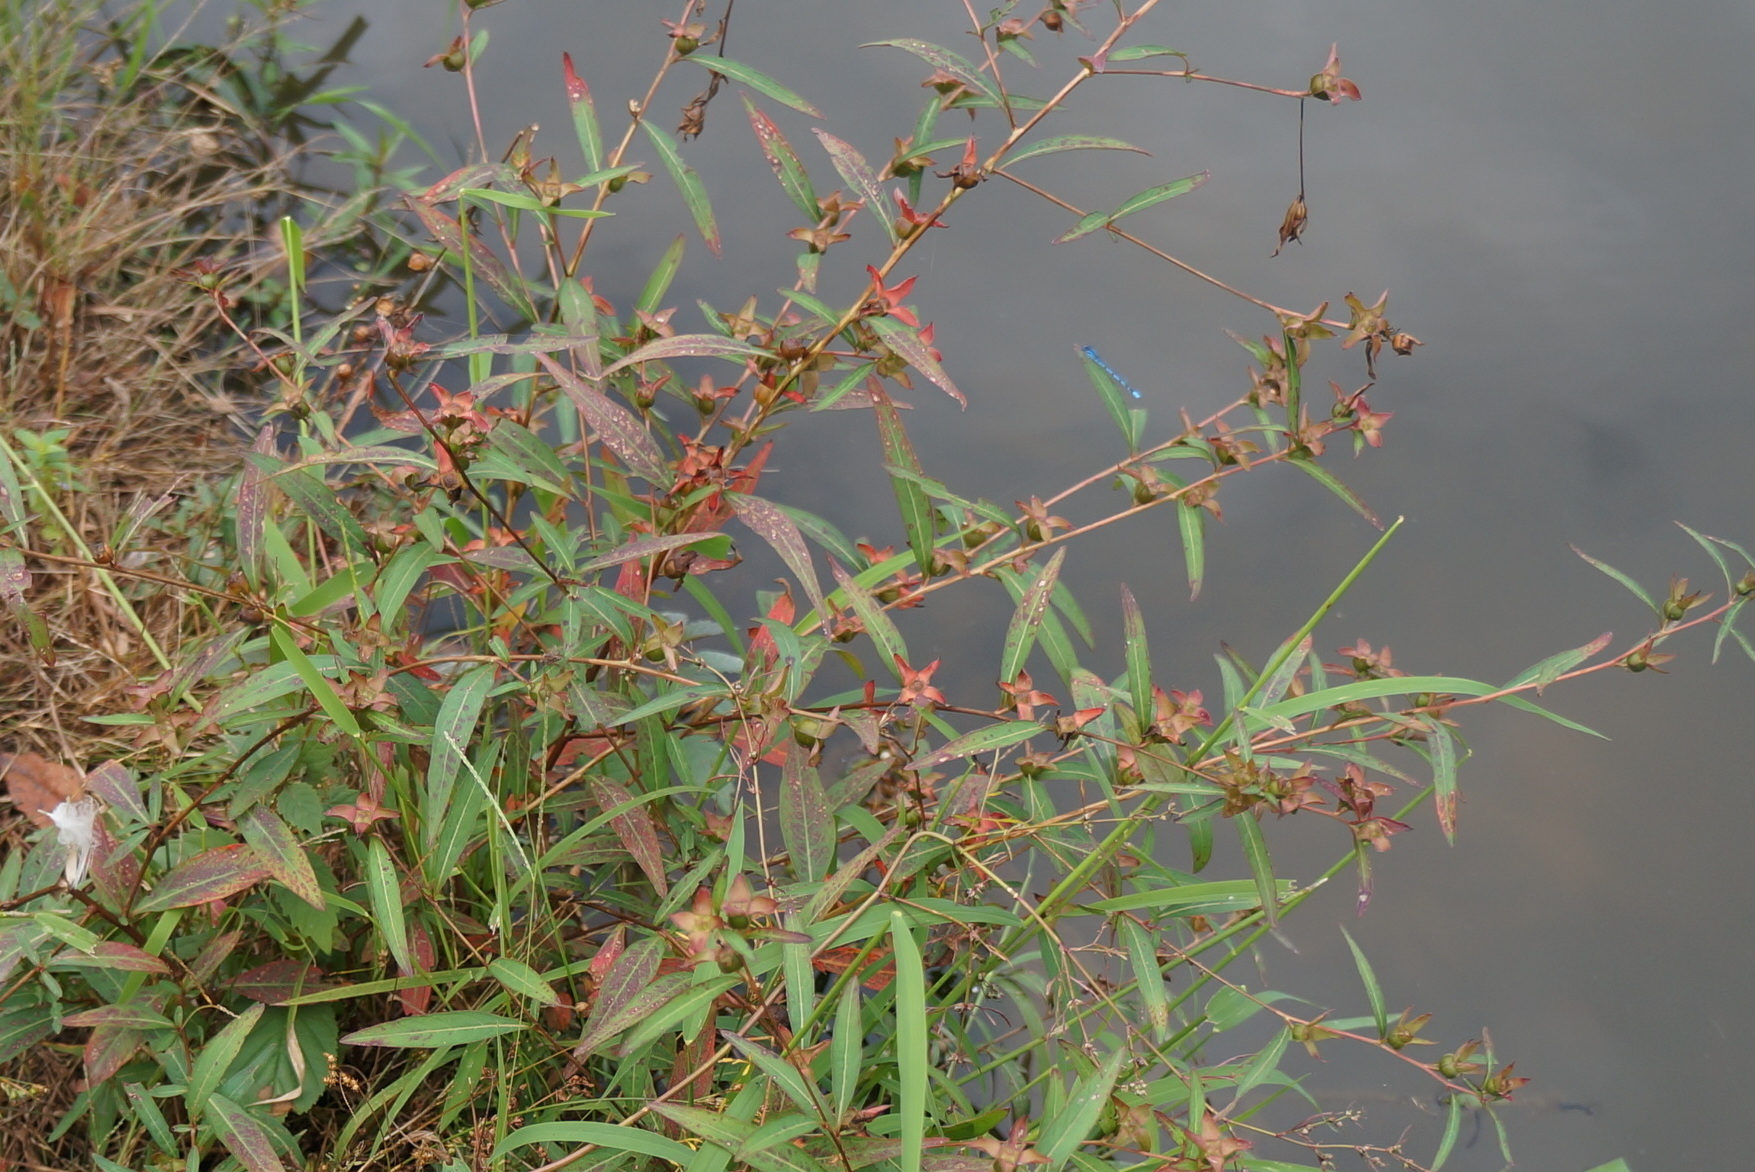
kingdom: Plantae
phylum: Tracheophyta
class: Magnoliopsida
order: Myrtales
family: Onagraceae
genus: Ludwigia
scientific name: Ludwigia alternifolia
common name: Rattlebox
